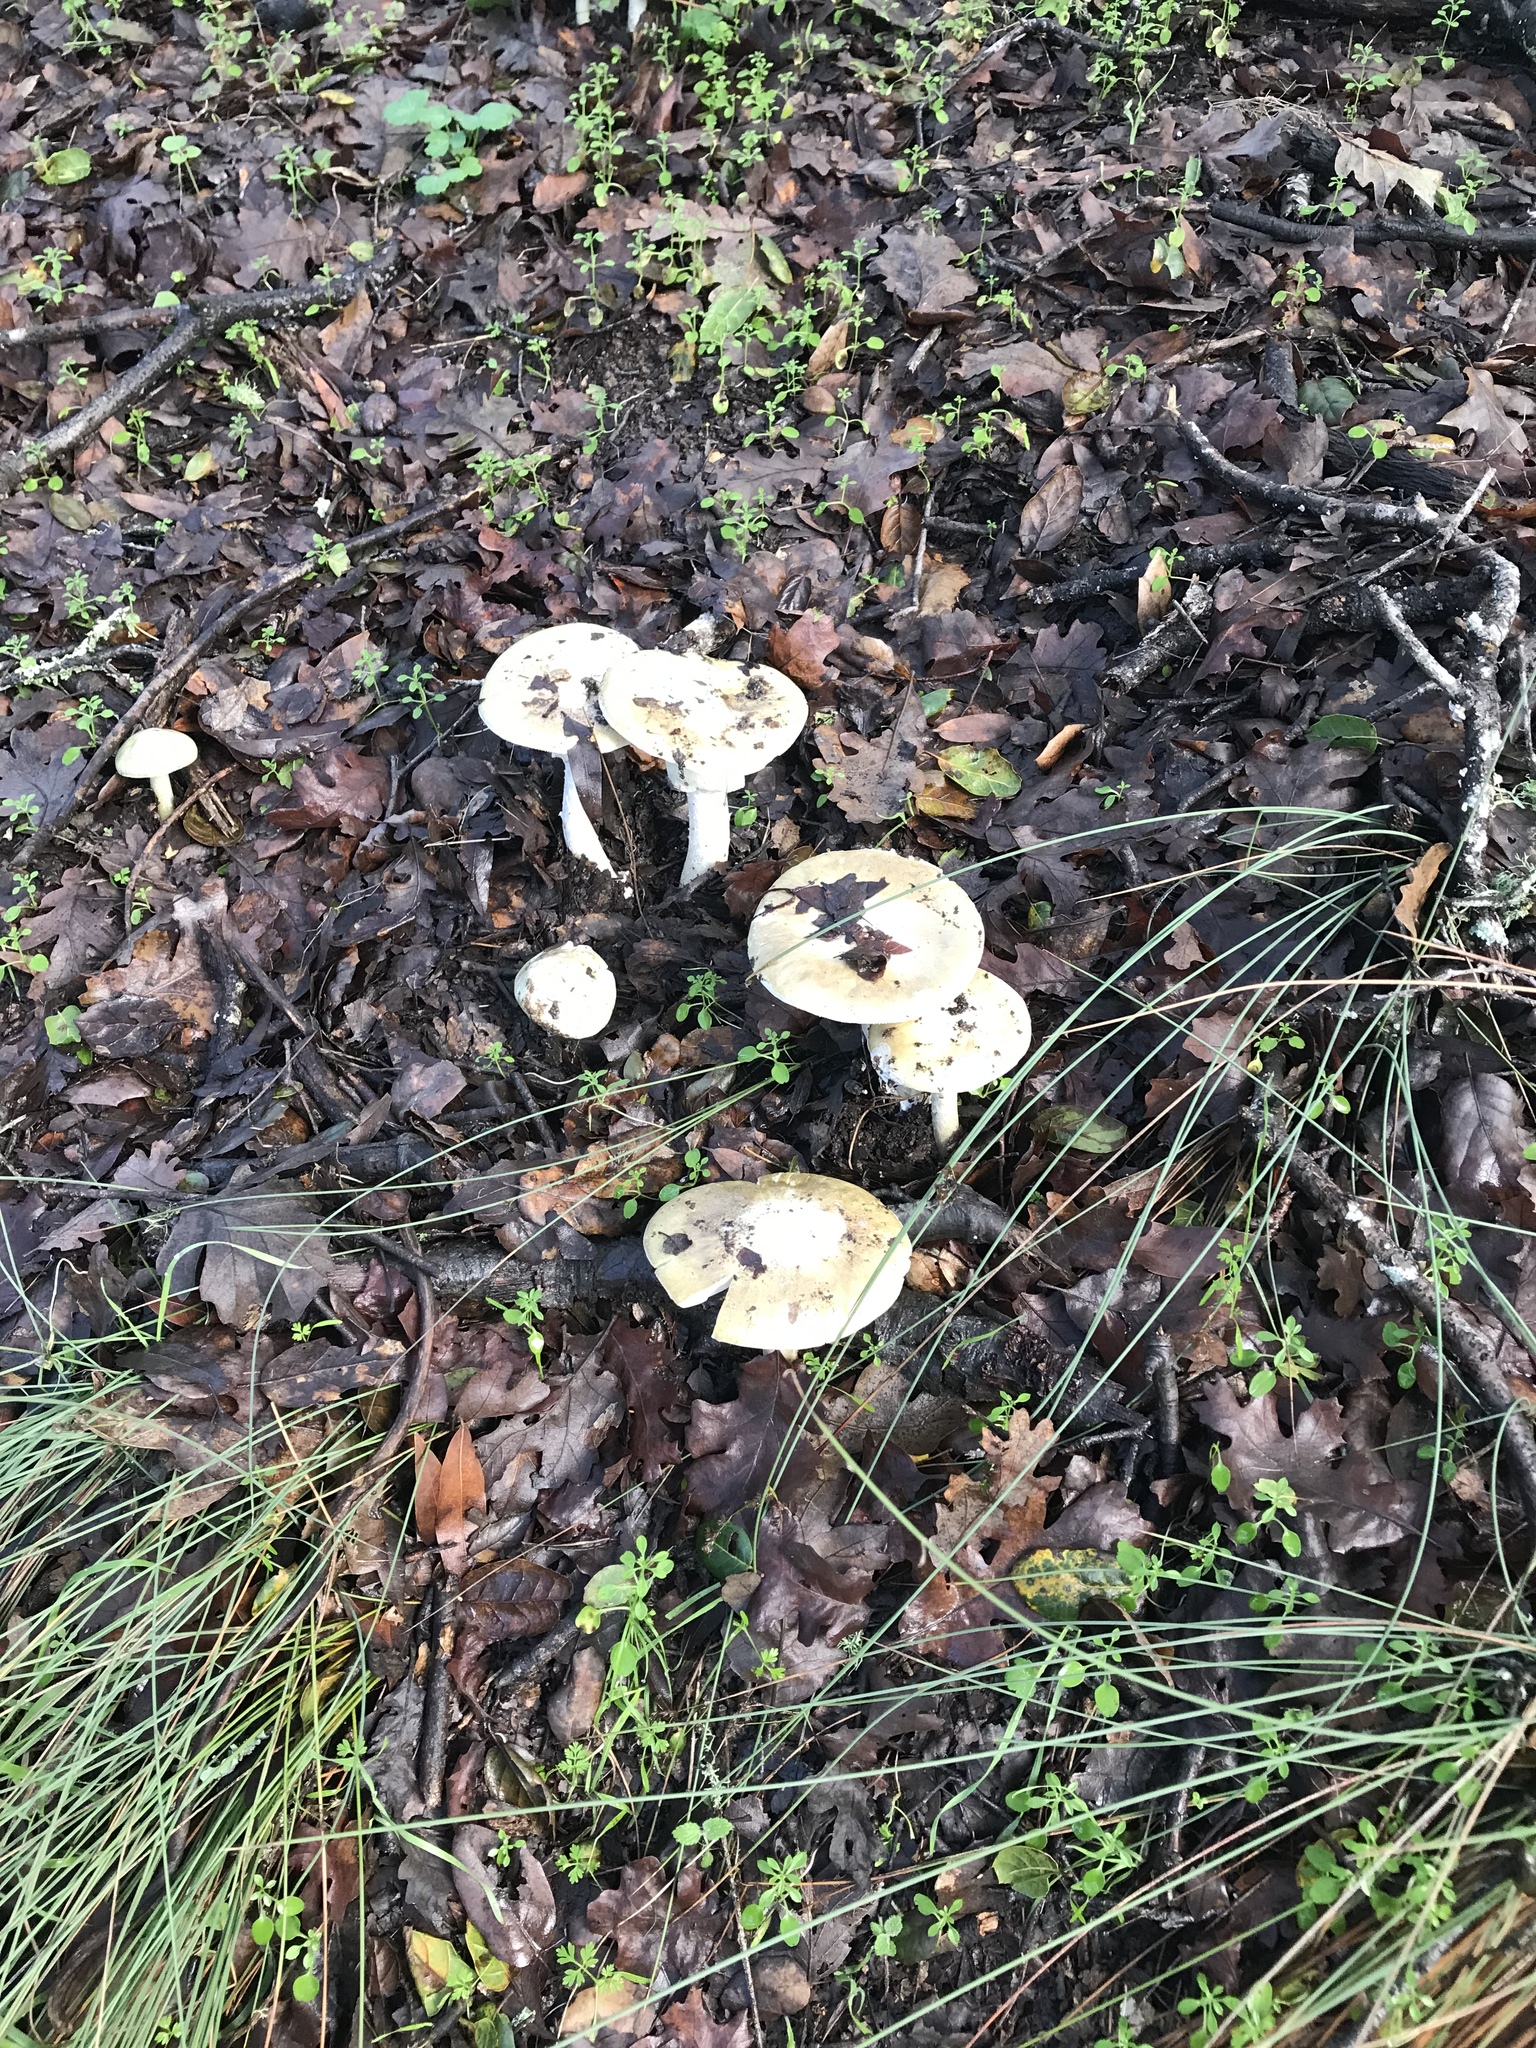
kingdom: Fungi
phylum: Basidiomycota
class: Agaricomycetes
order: Agaricales
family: Amanitaceae
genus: Amanita
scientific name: Amanita phalloides
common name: Death cap
